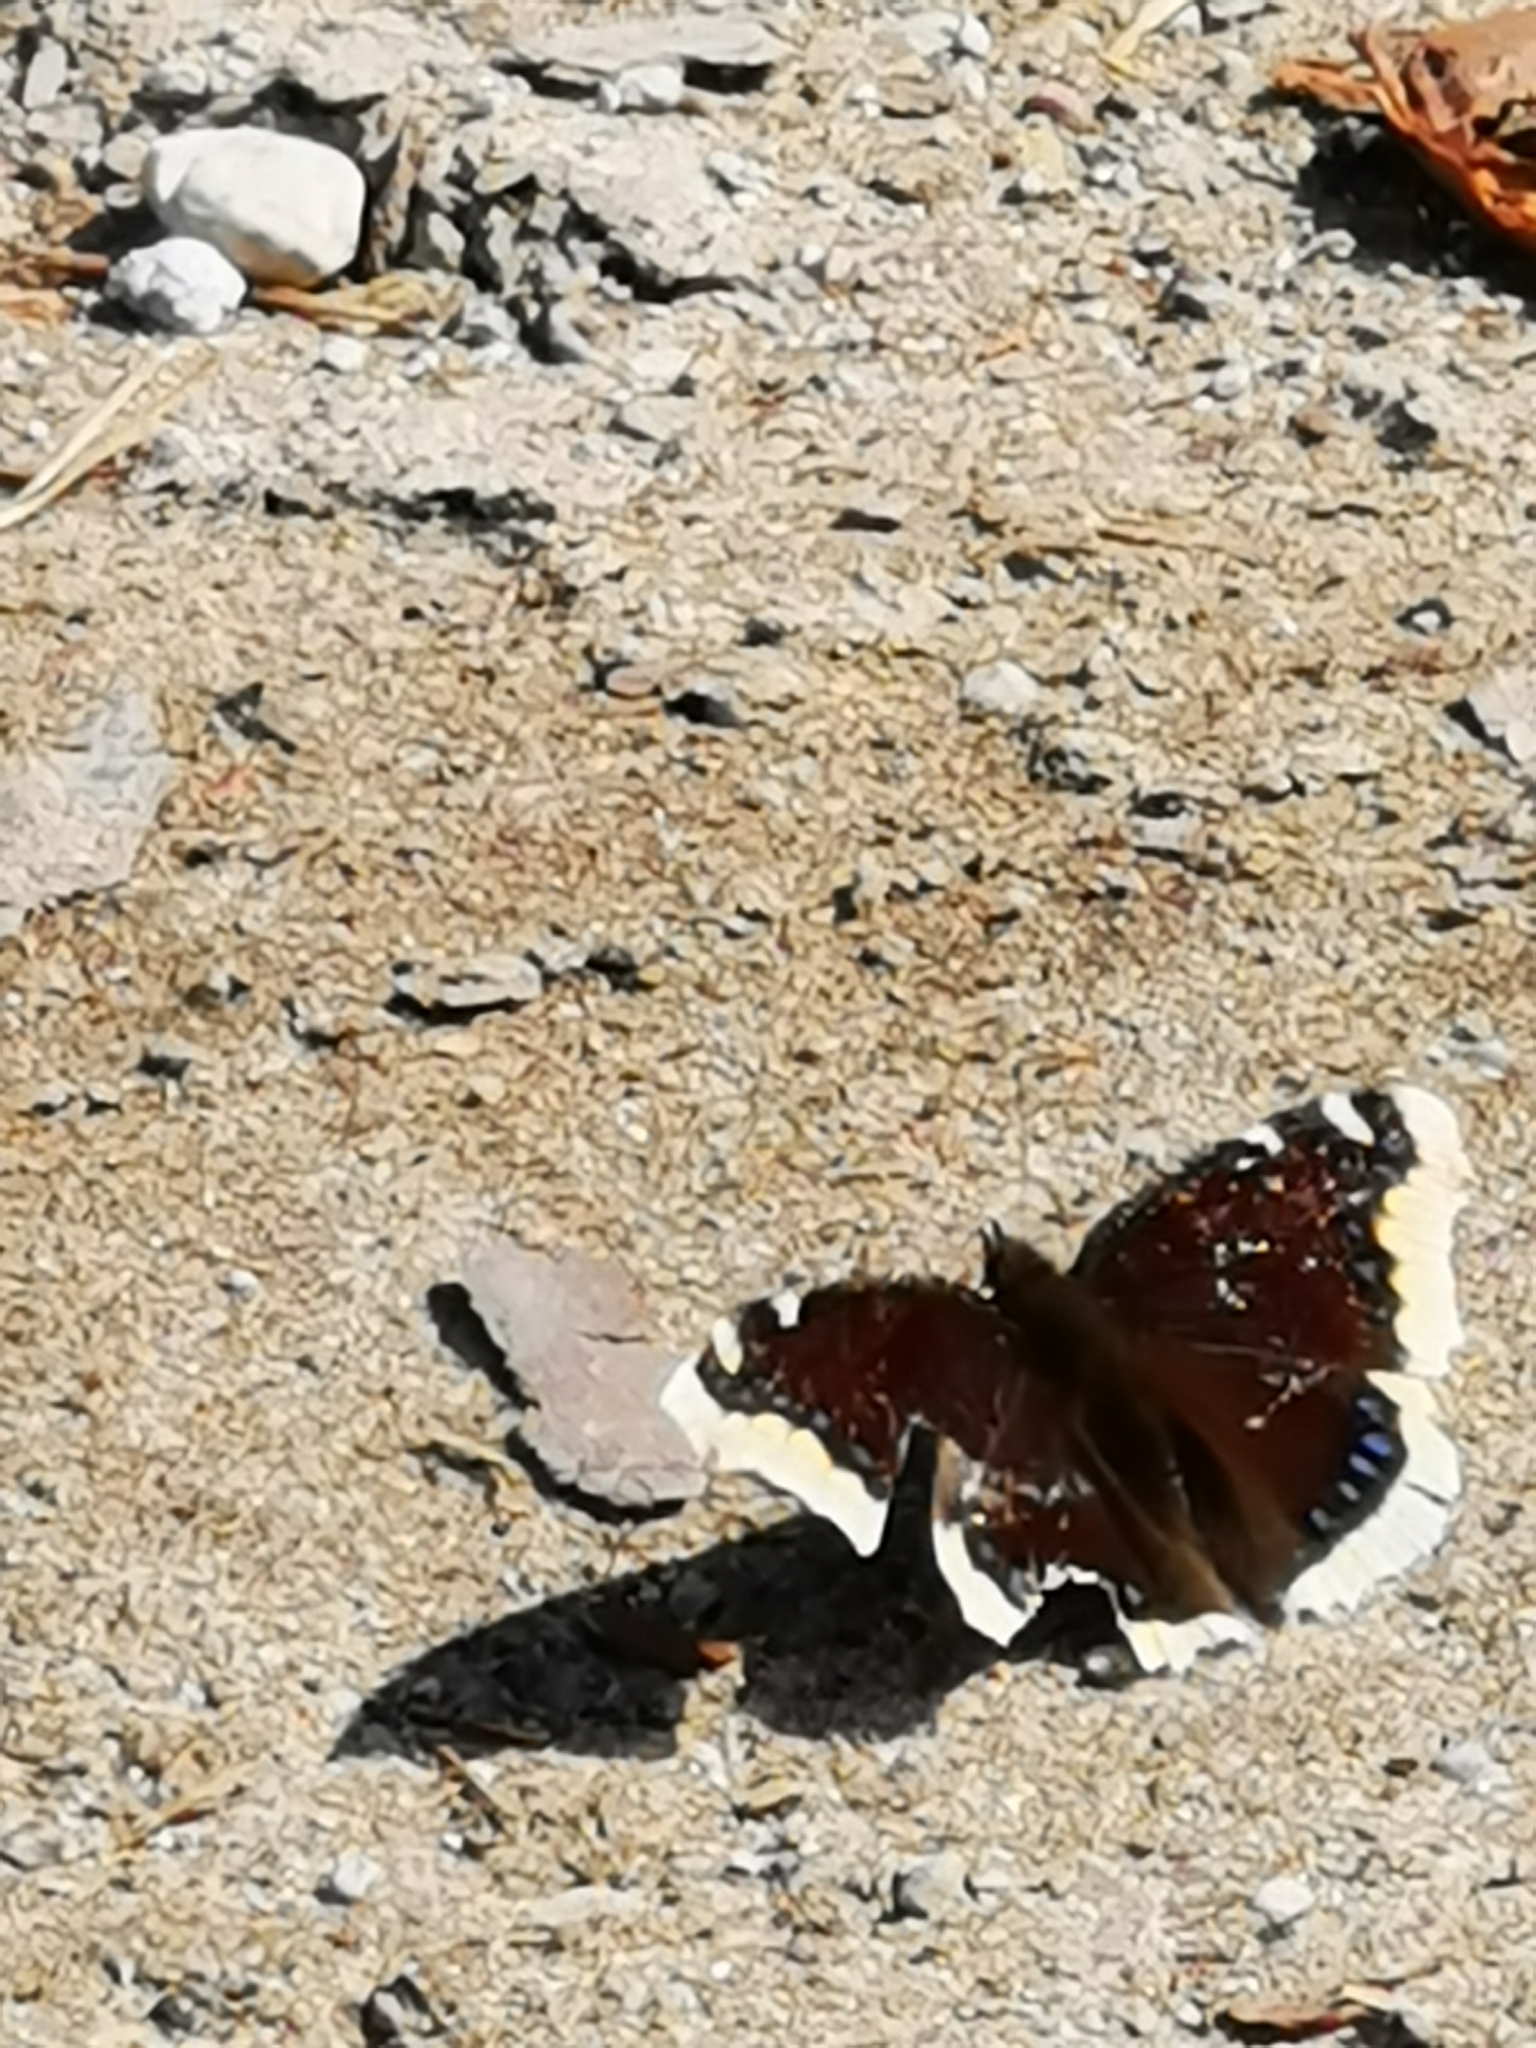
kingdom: Animalia
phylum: Arthropoda
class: Insecta
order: Lepidoptera
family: Nymphalidae
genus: Nymphalis
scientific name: Nymphalis antiopa
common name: Camberwell beauty
